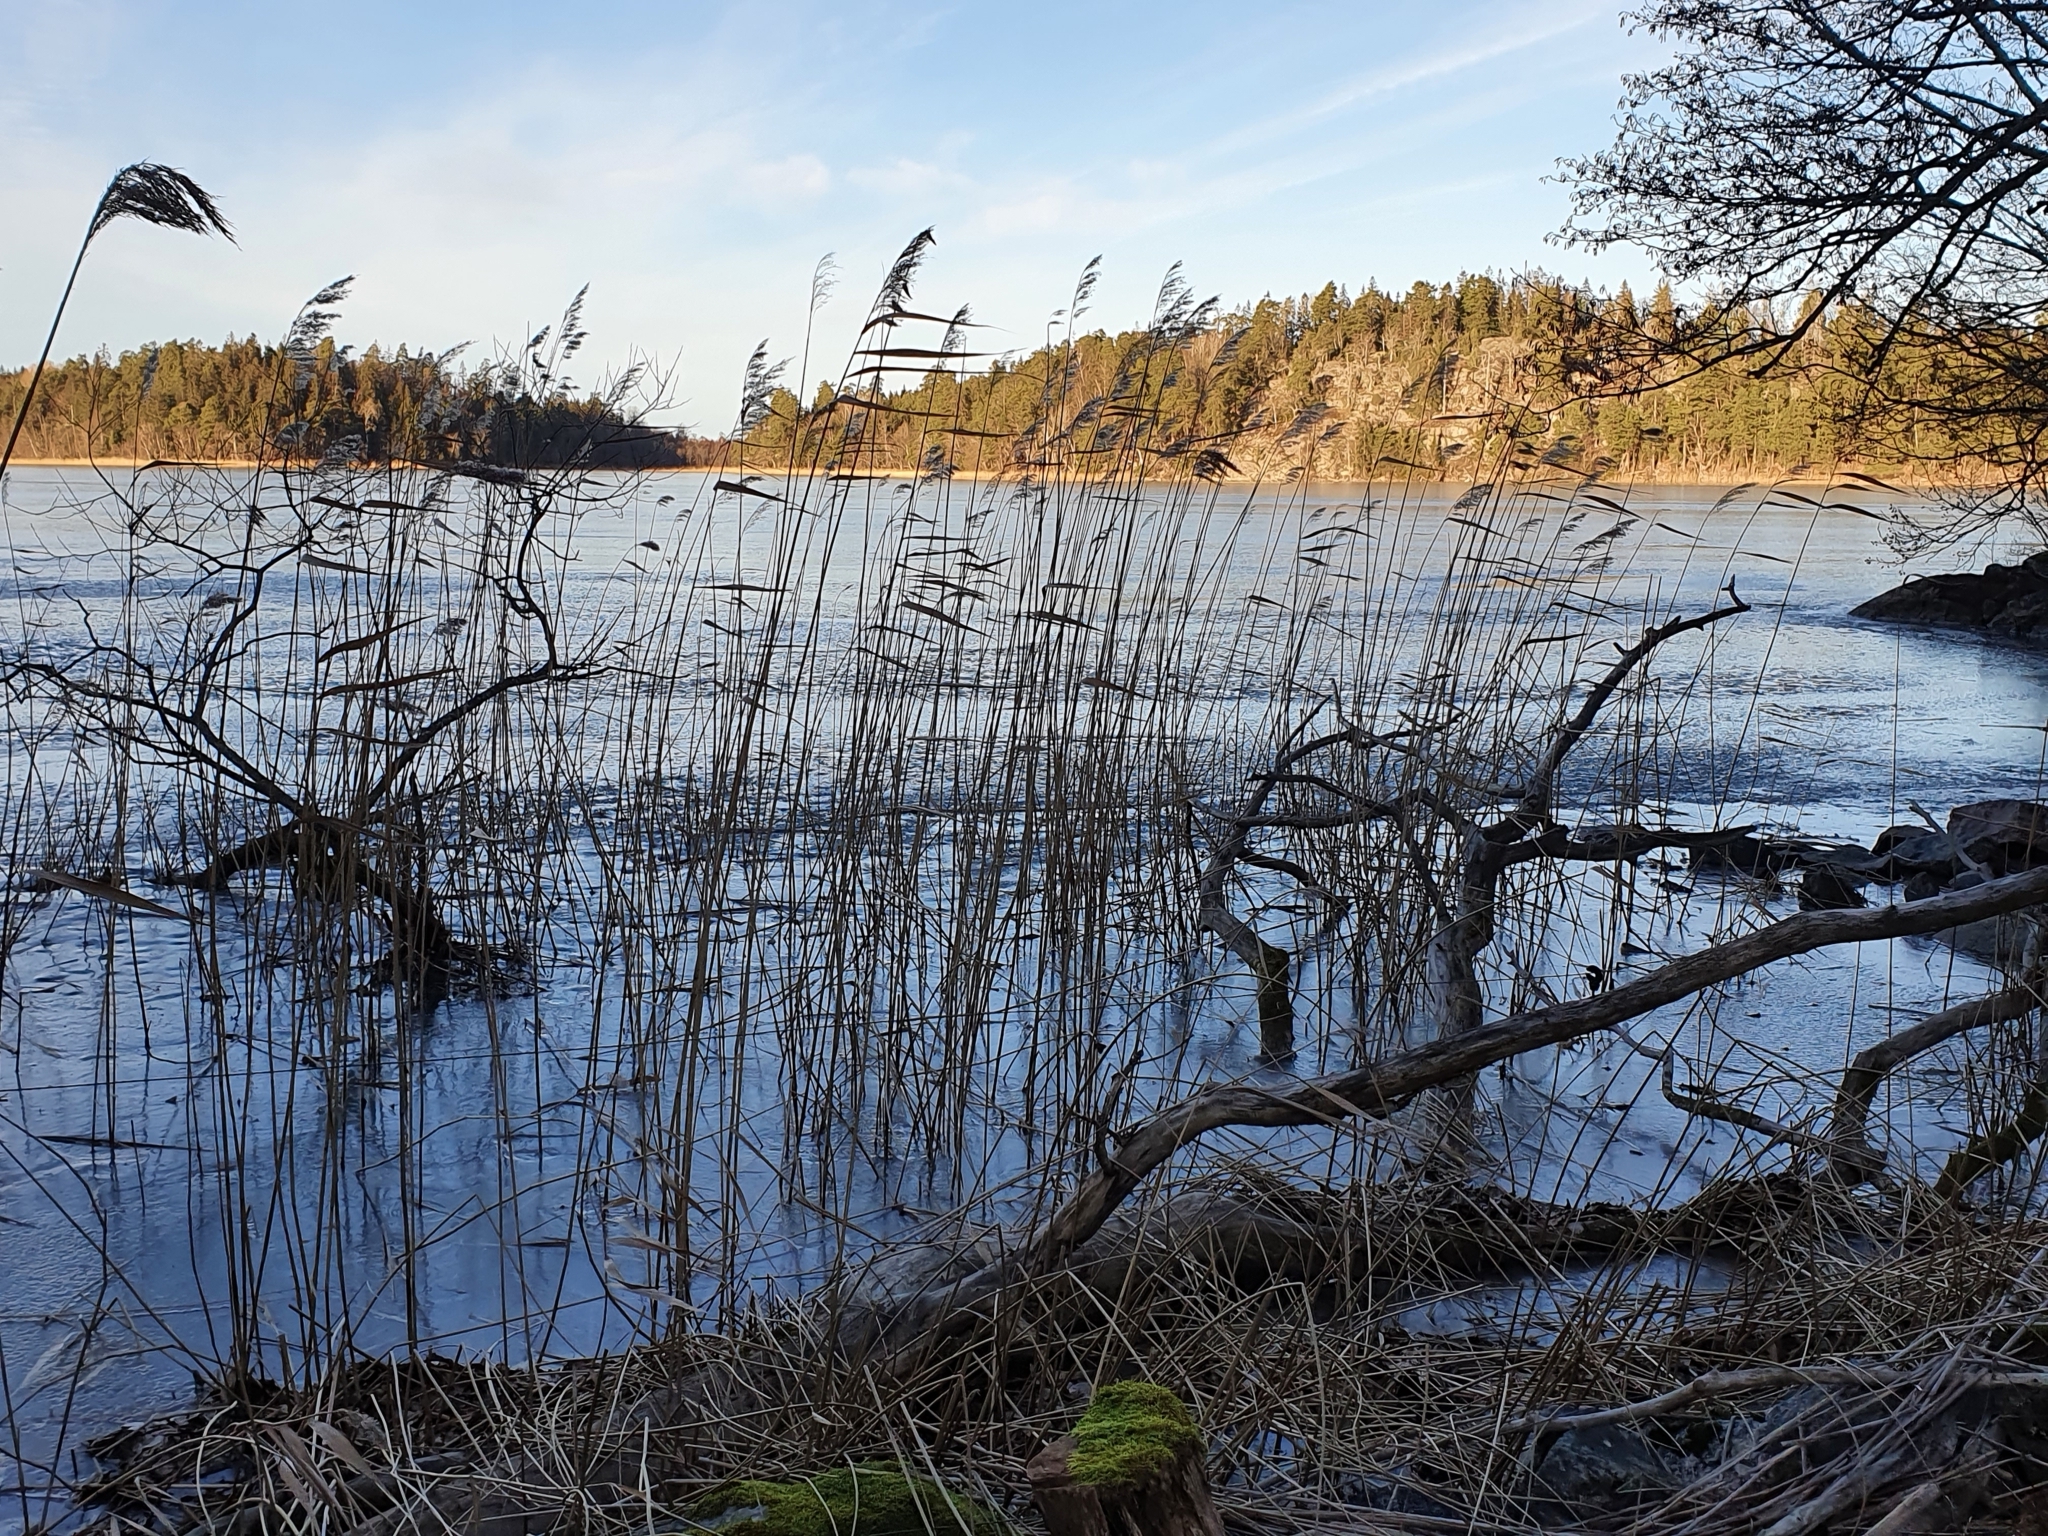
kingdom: Plantae
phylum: Tracheophyta
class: Liliopsida
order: Poales
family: Poaceae
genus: Phragmites
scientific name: Phragmites australis
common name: Common reed
